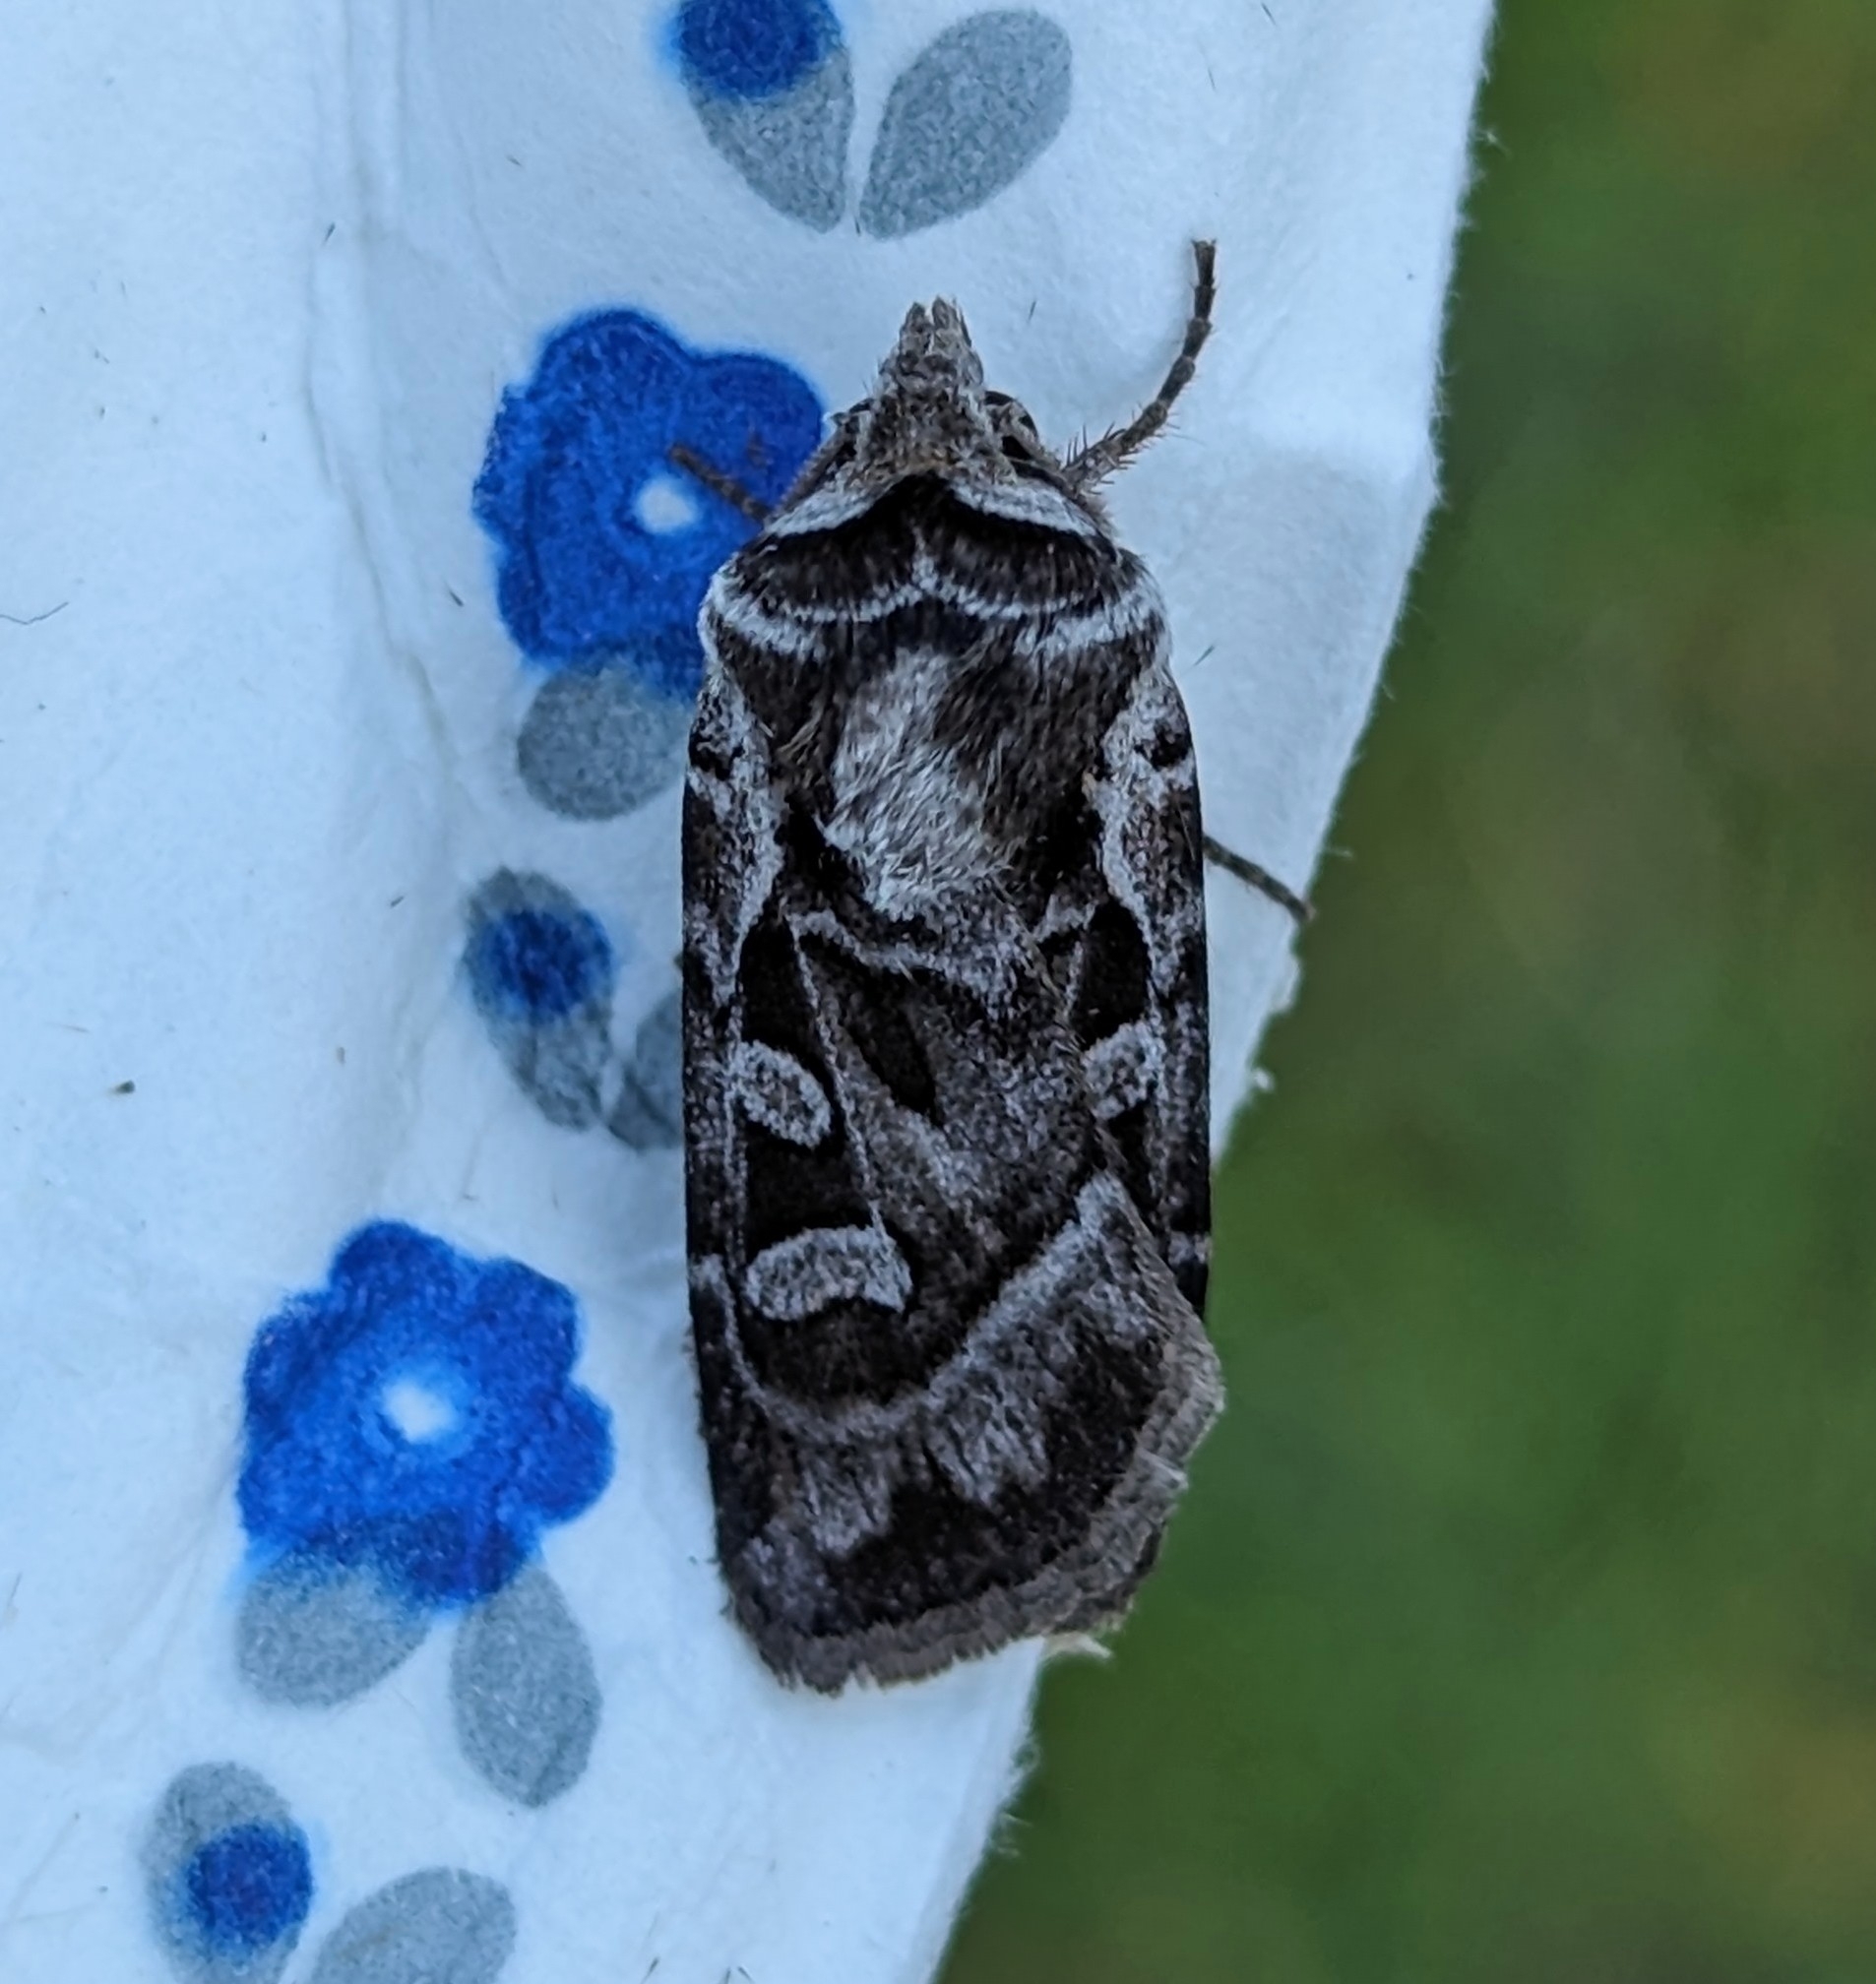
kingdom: Animalia
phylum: Arthropoda
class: Insecta
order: Lepidoptera
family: Noctuidae
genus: Euxoa
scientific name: Euxoa servita
